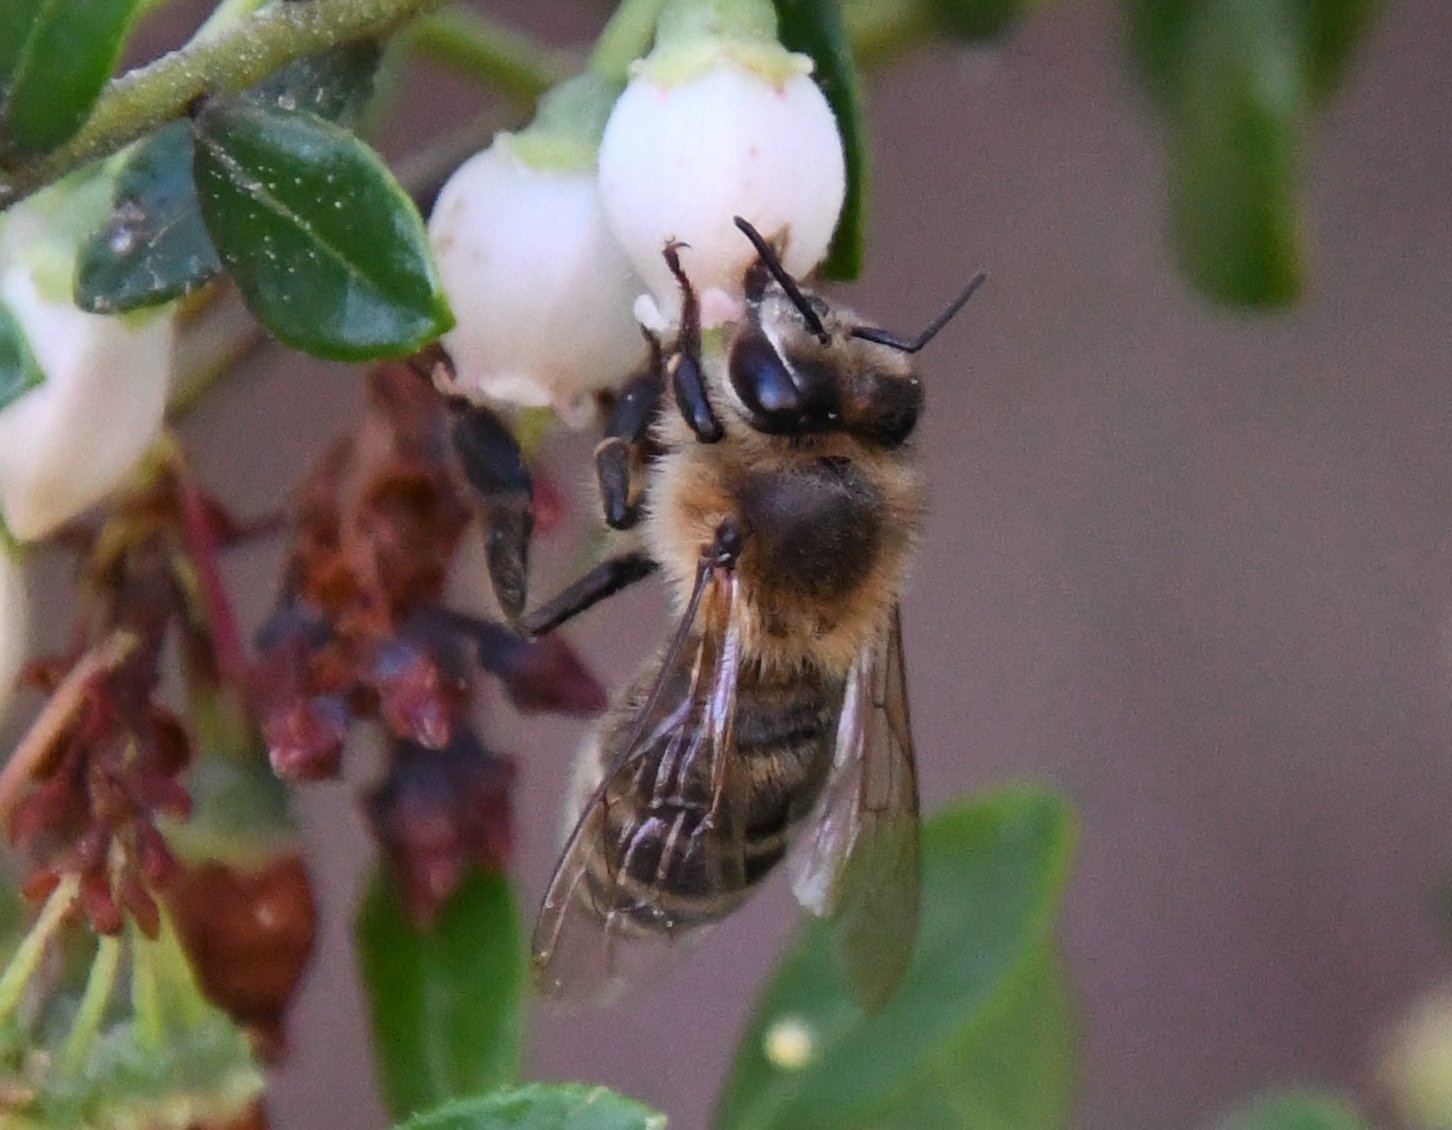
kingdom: Animalia
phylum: Arthropoda
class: Insecta
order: Hymenoptera
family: Apidae
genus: Apis
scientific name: Apis mellifera
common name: Honey bee
